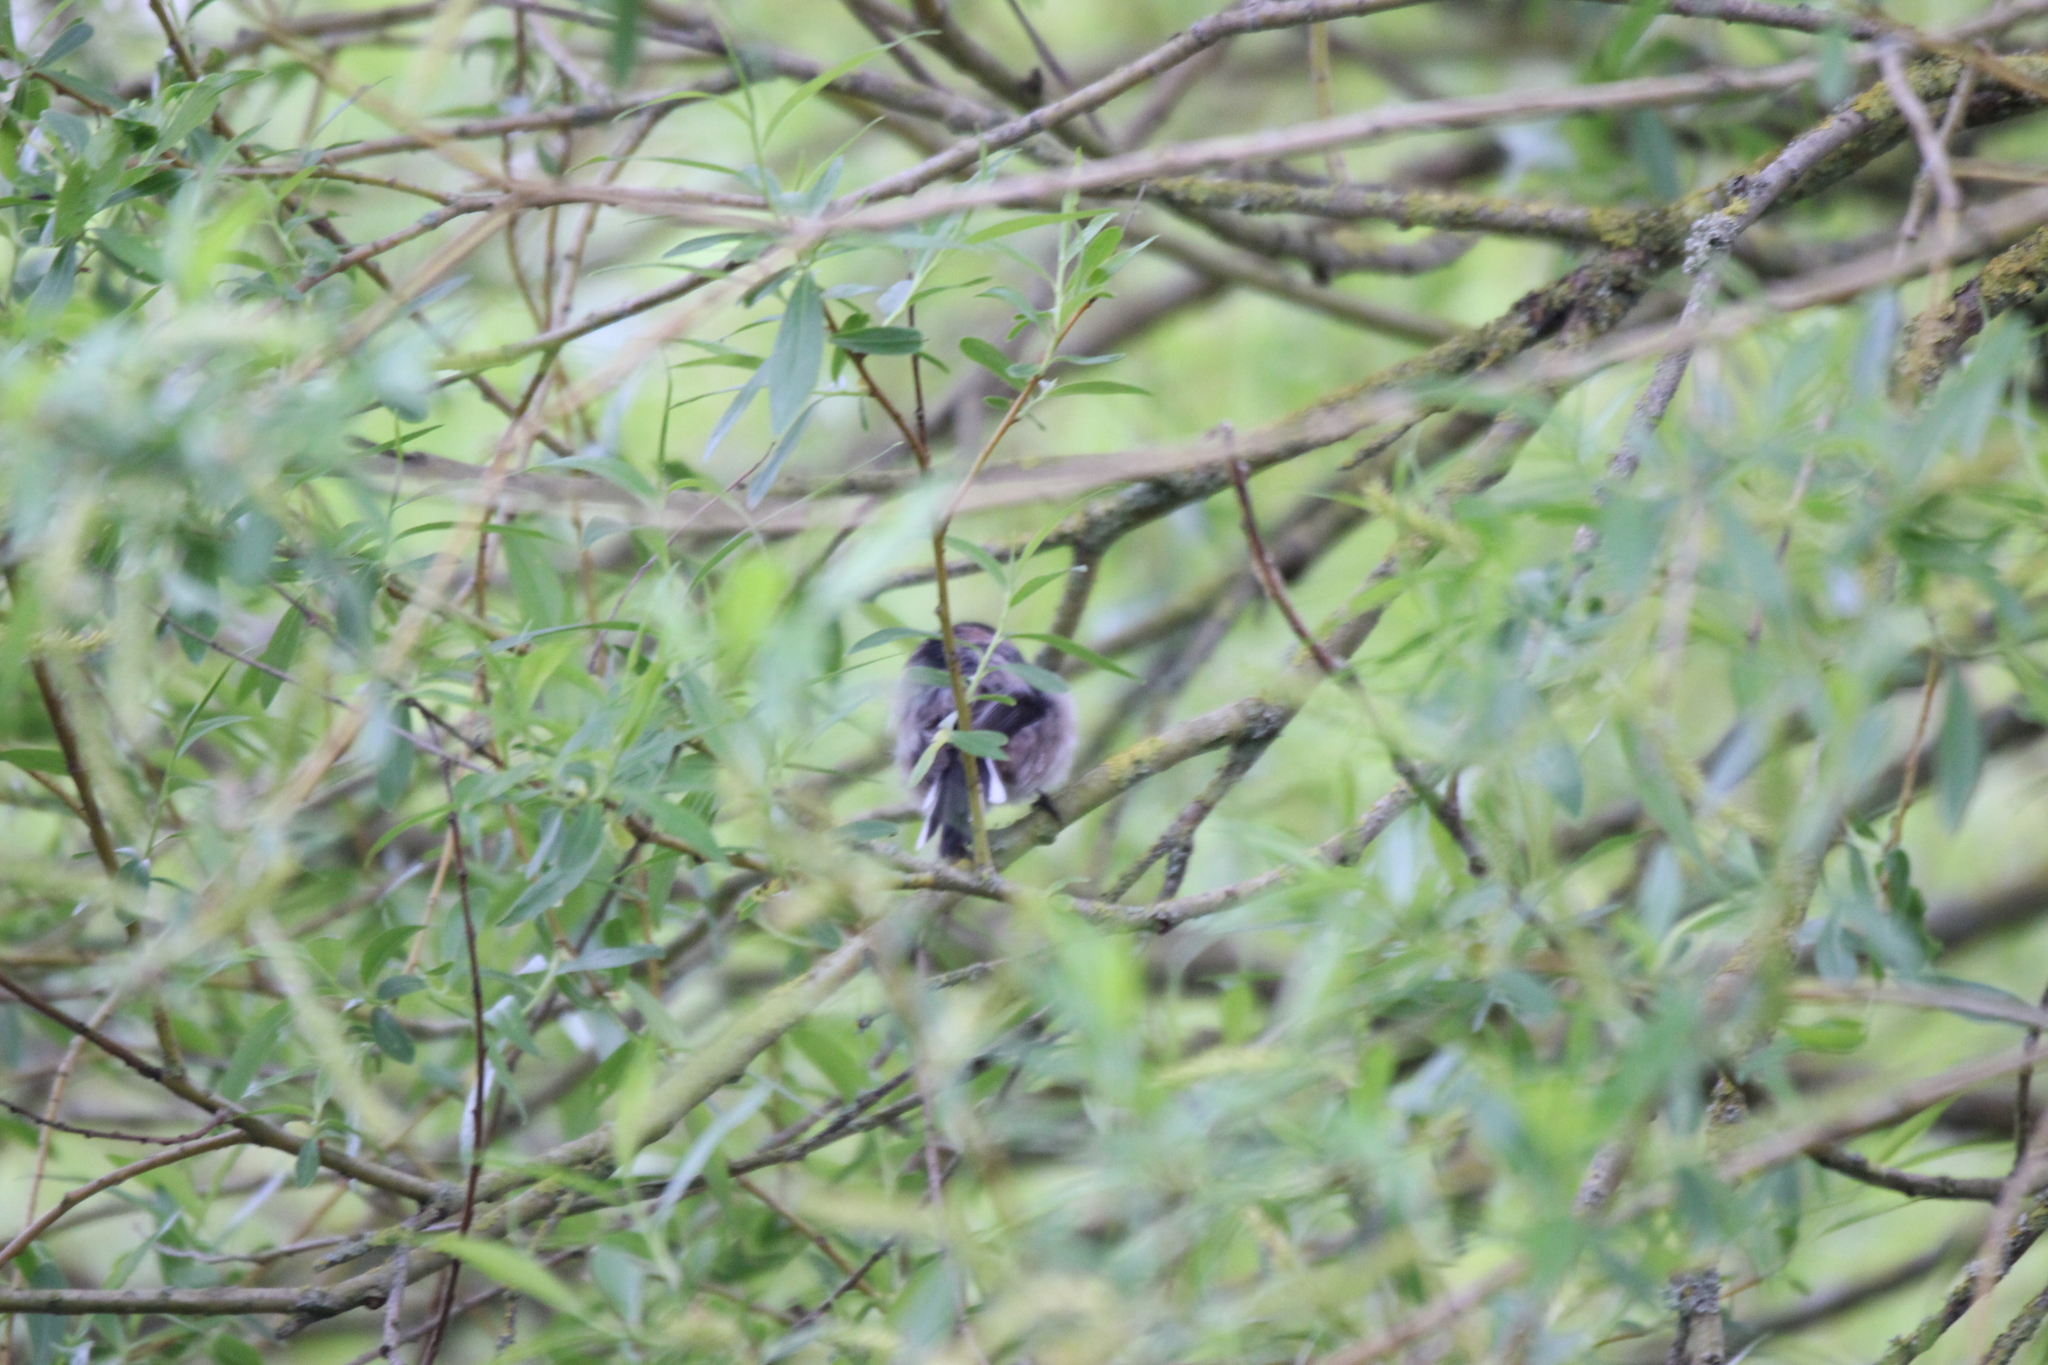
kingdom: Animalia
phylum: Chordata
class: Aves
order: Passeriformes
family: Aegithalidae
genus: Aegithalos
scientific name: Aegithalos caudatus
